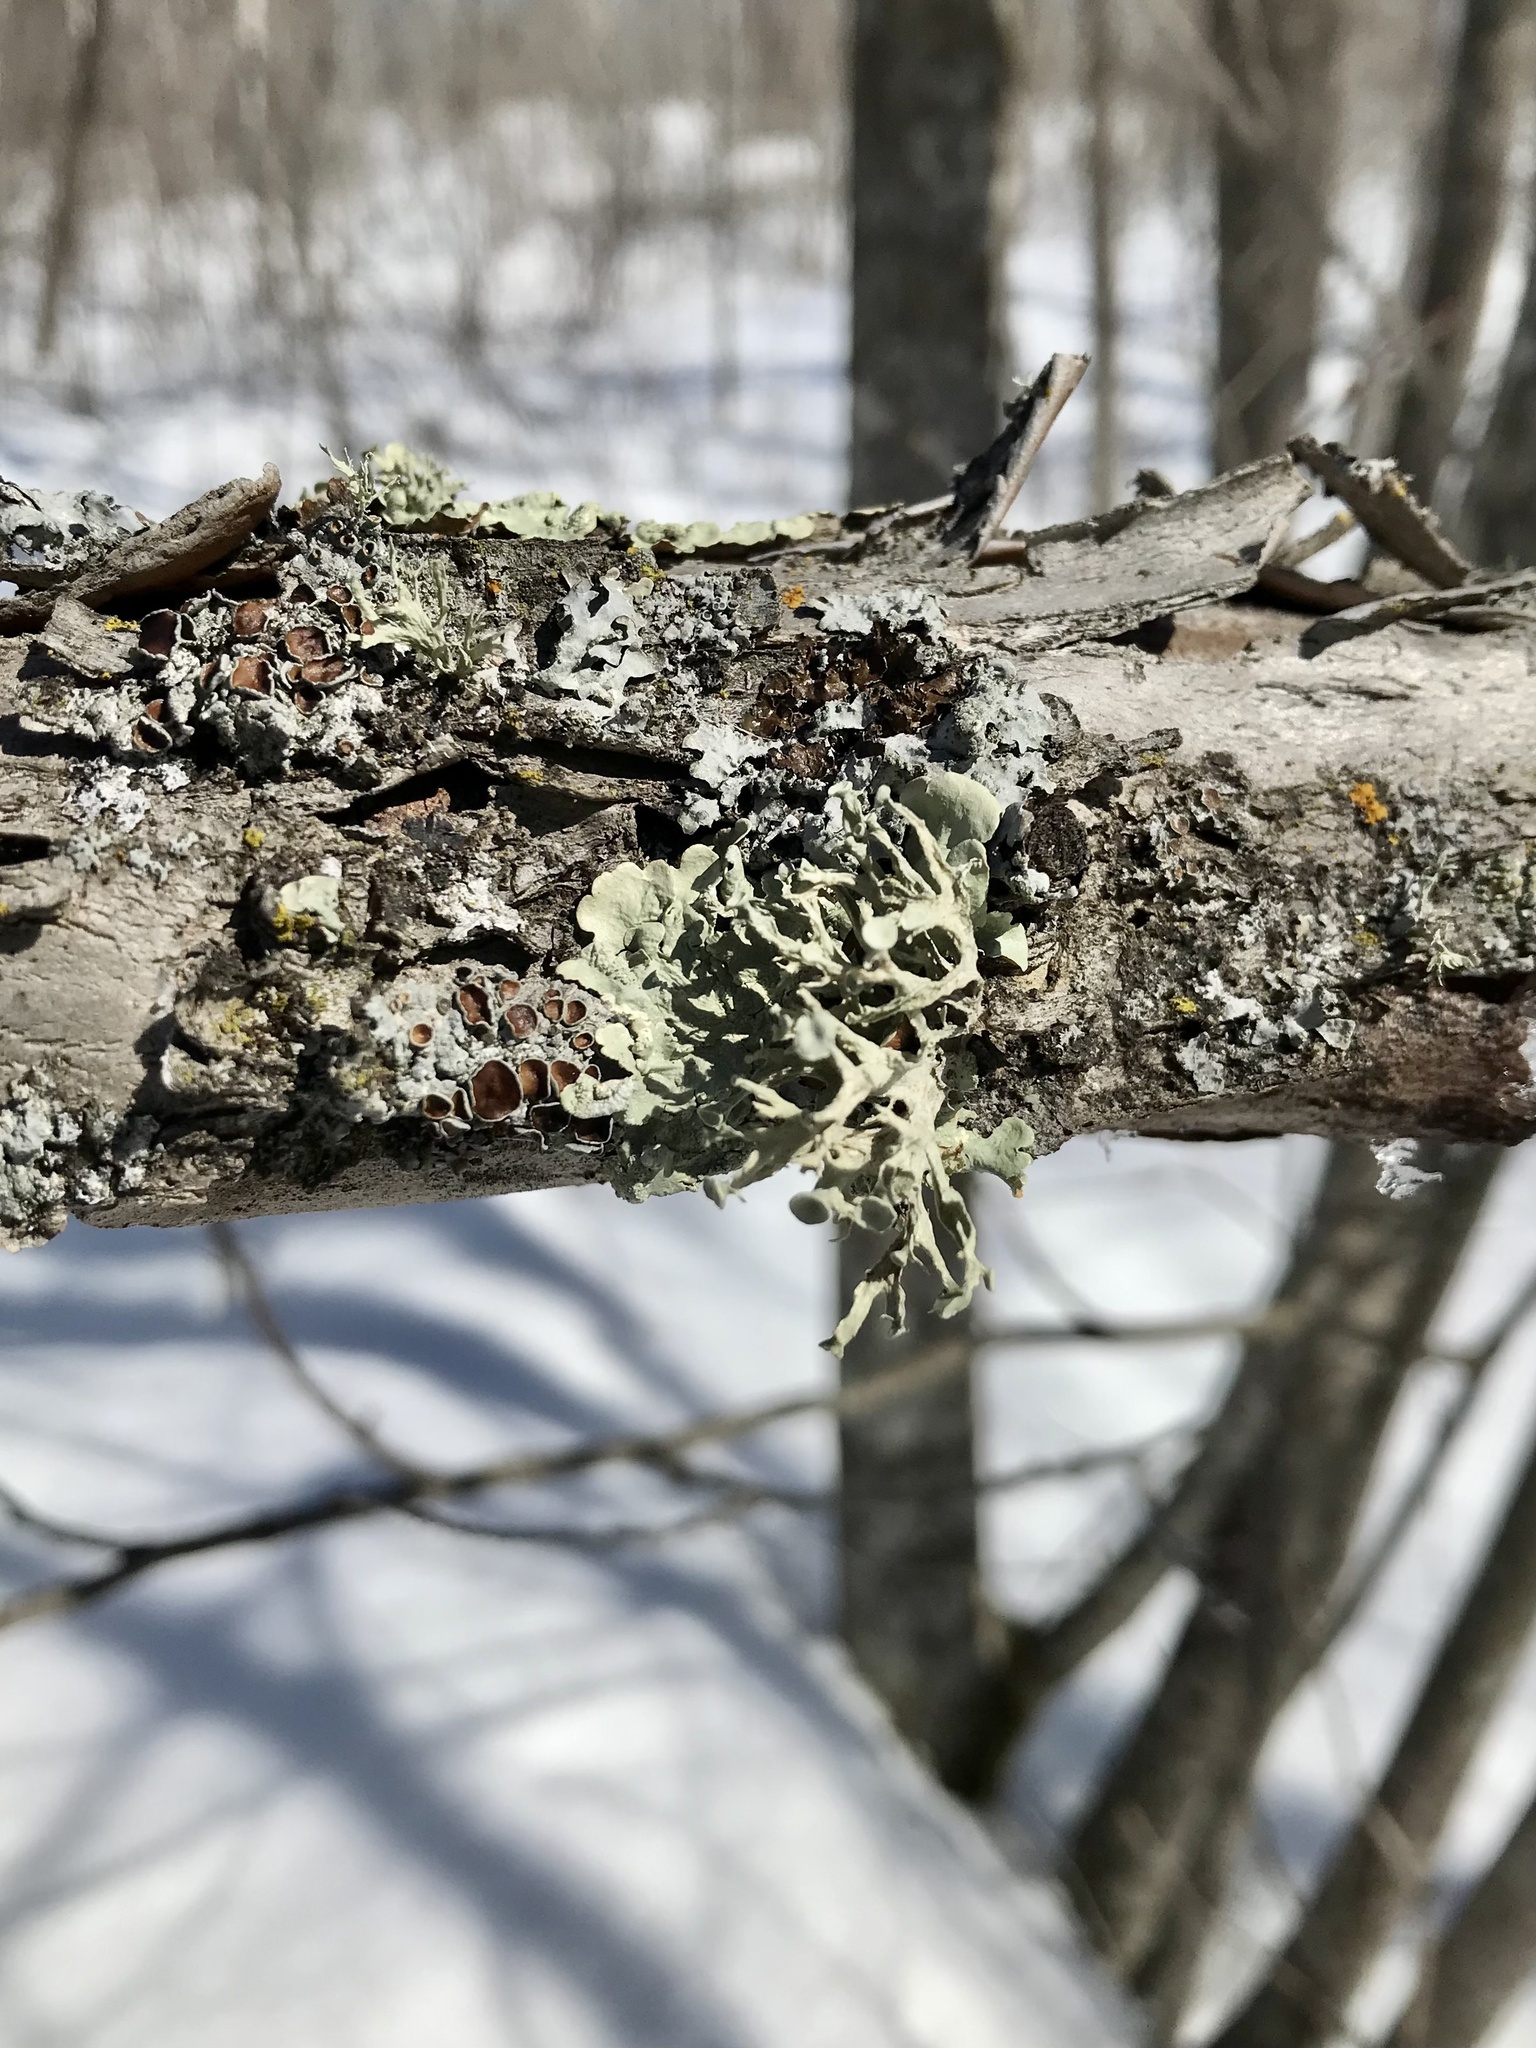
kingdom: Fungi
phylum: Ascomycota
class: Lecanoromycetes
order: Lecanorales
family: Ramalinaceae
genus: Ramalina
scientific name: Ramalina americana
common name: Sinewed bush lichen
